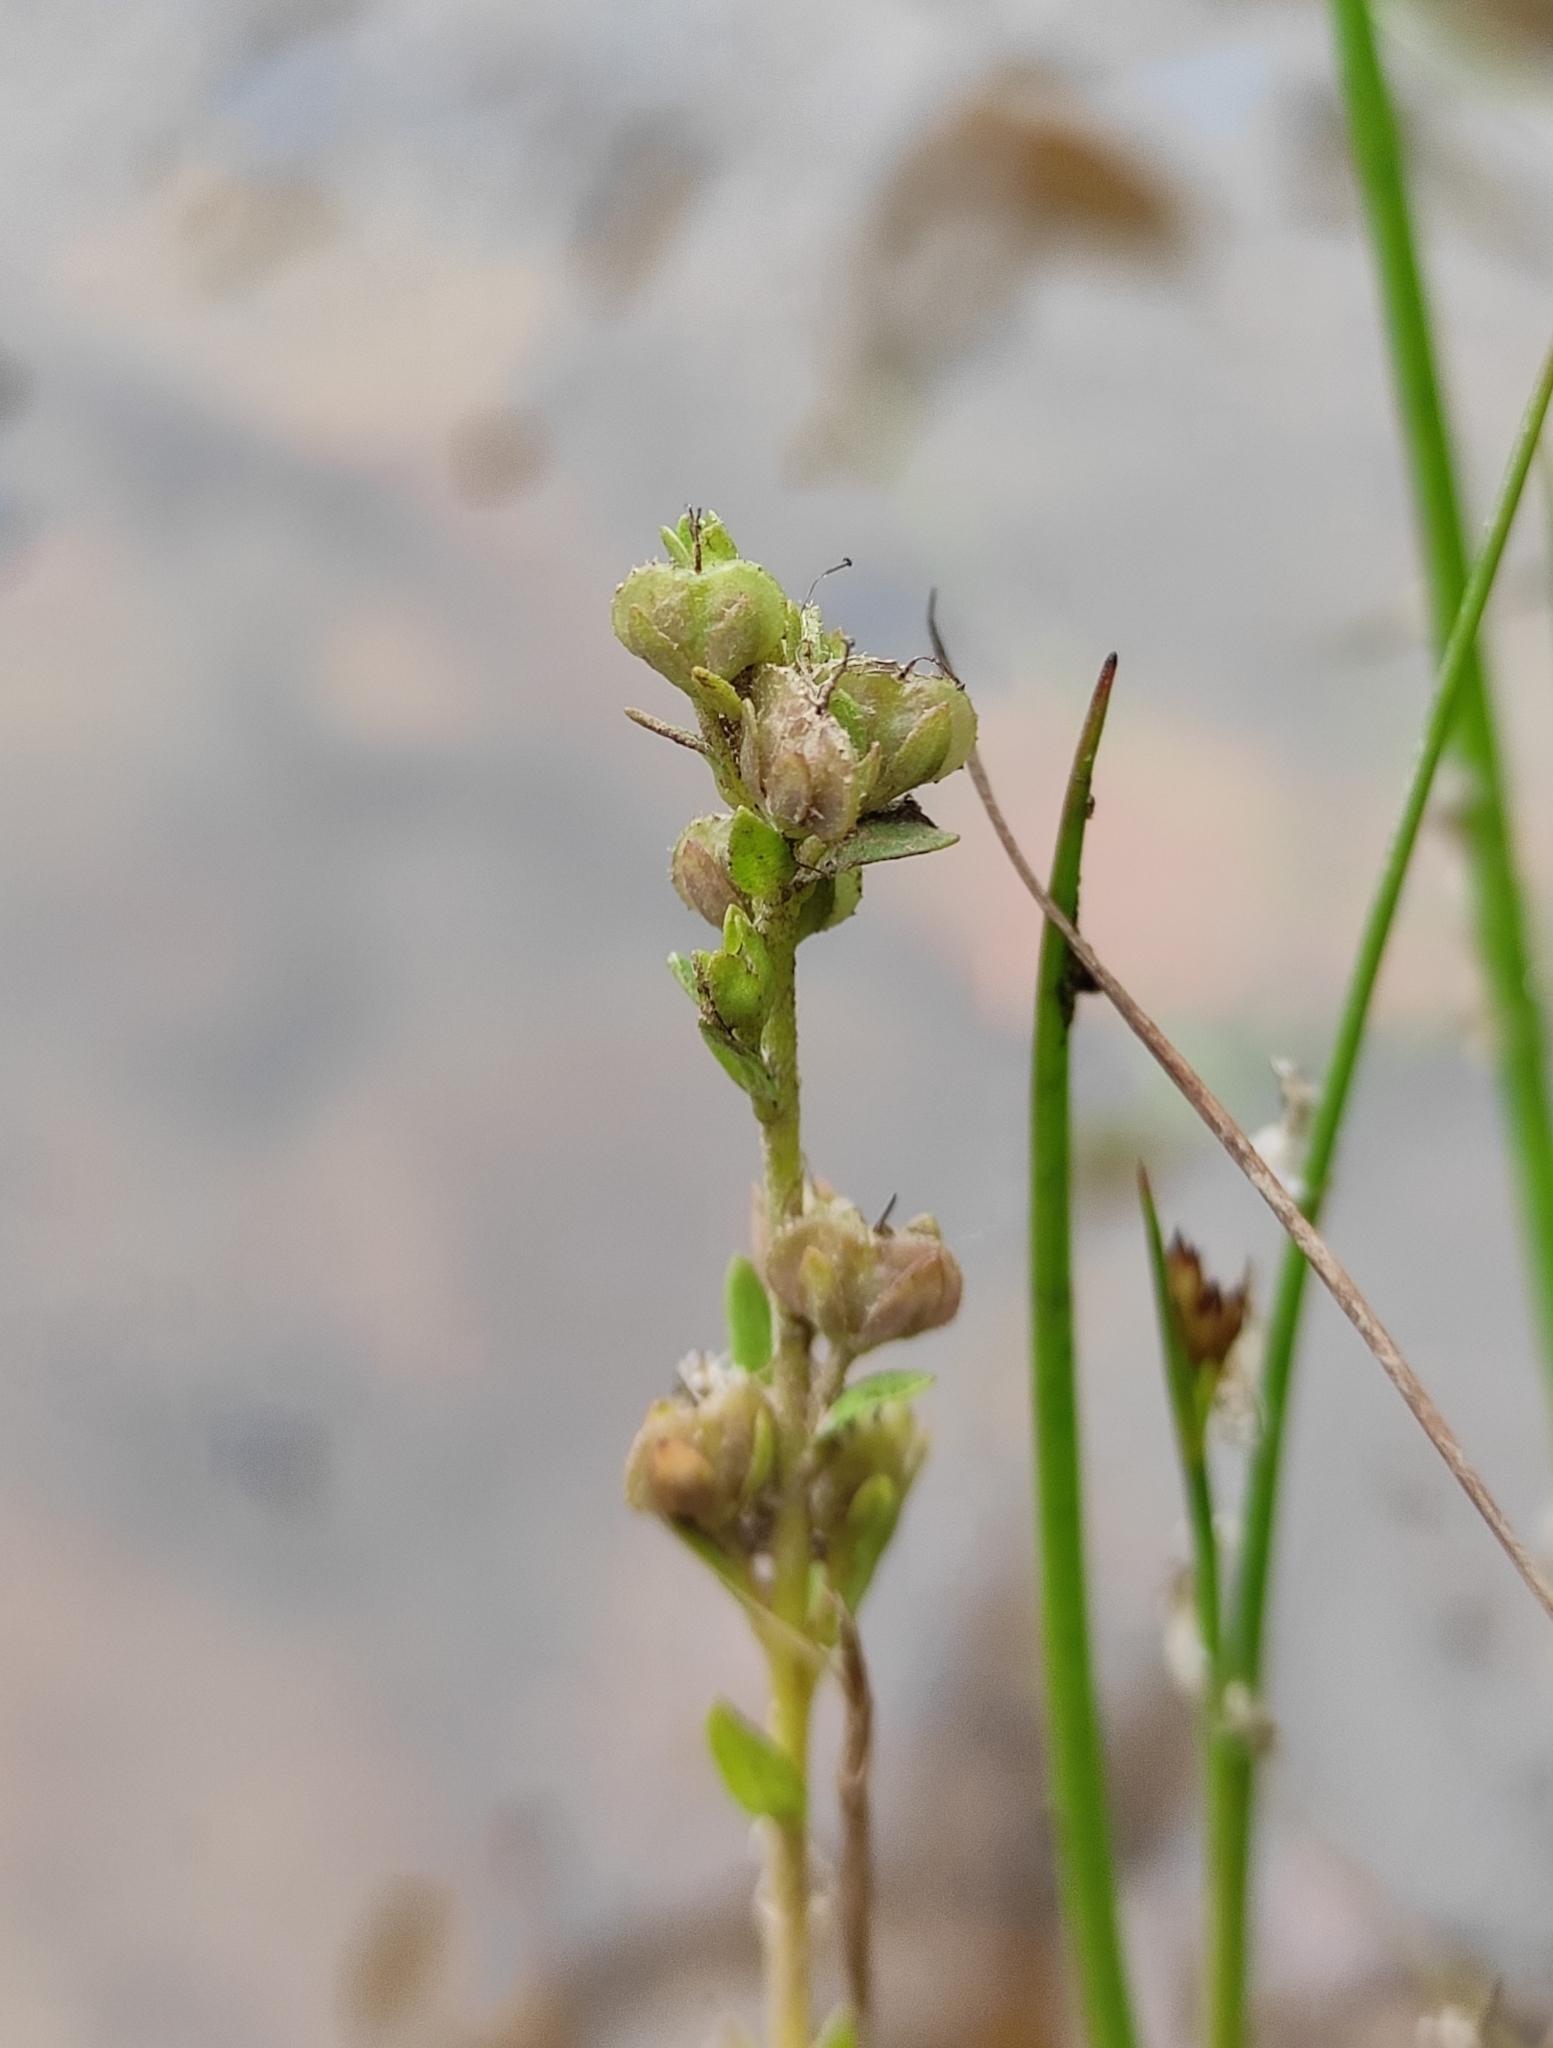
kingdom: Plantae
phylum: Tracheophyta
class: Magnoliopsida
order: Lamiales
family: Plantaginaceae
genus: Veronica
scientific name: Veronica serpyllifolia
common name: Thyme-leaved speedwell
